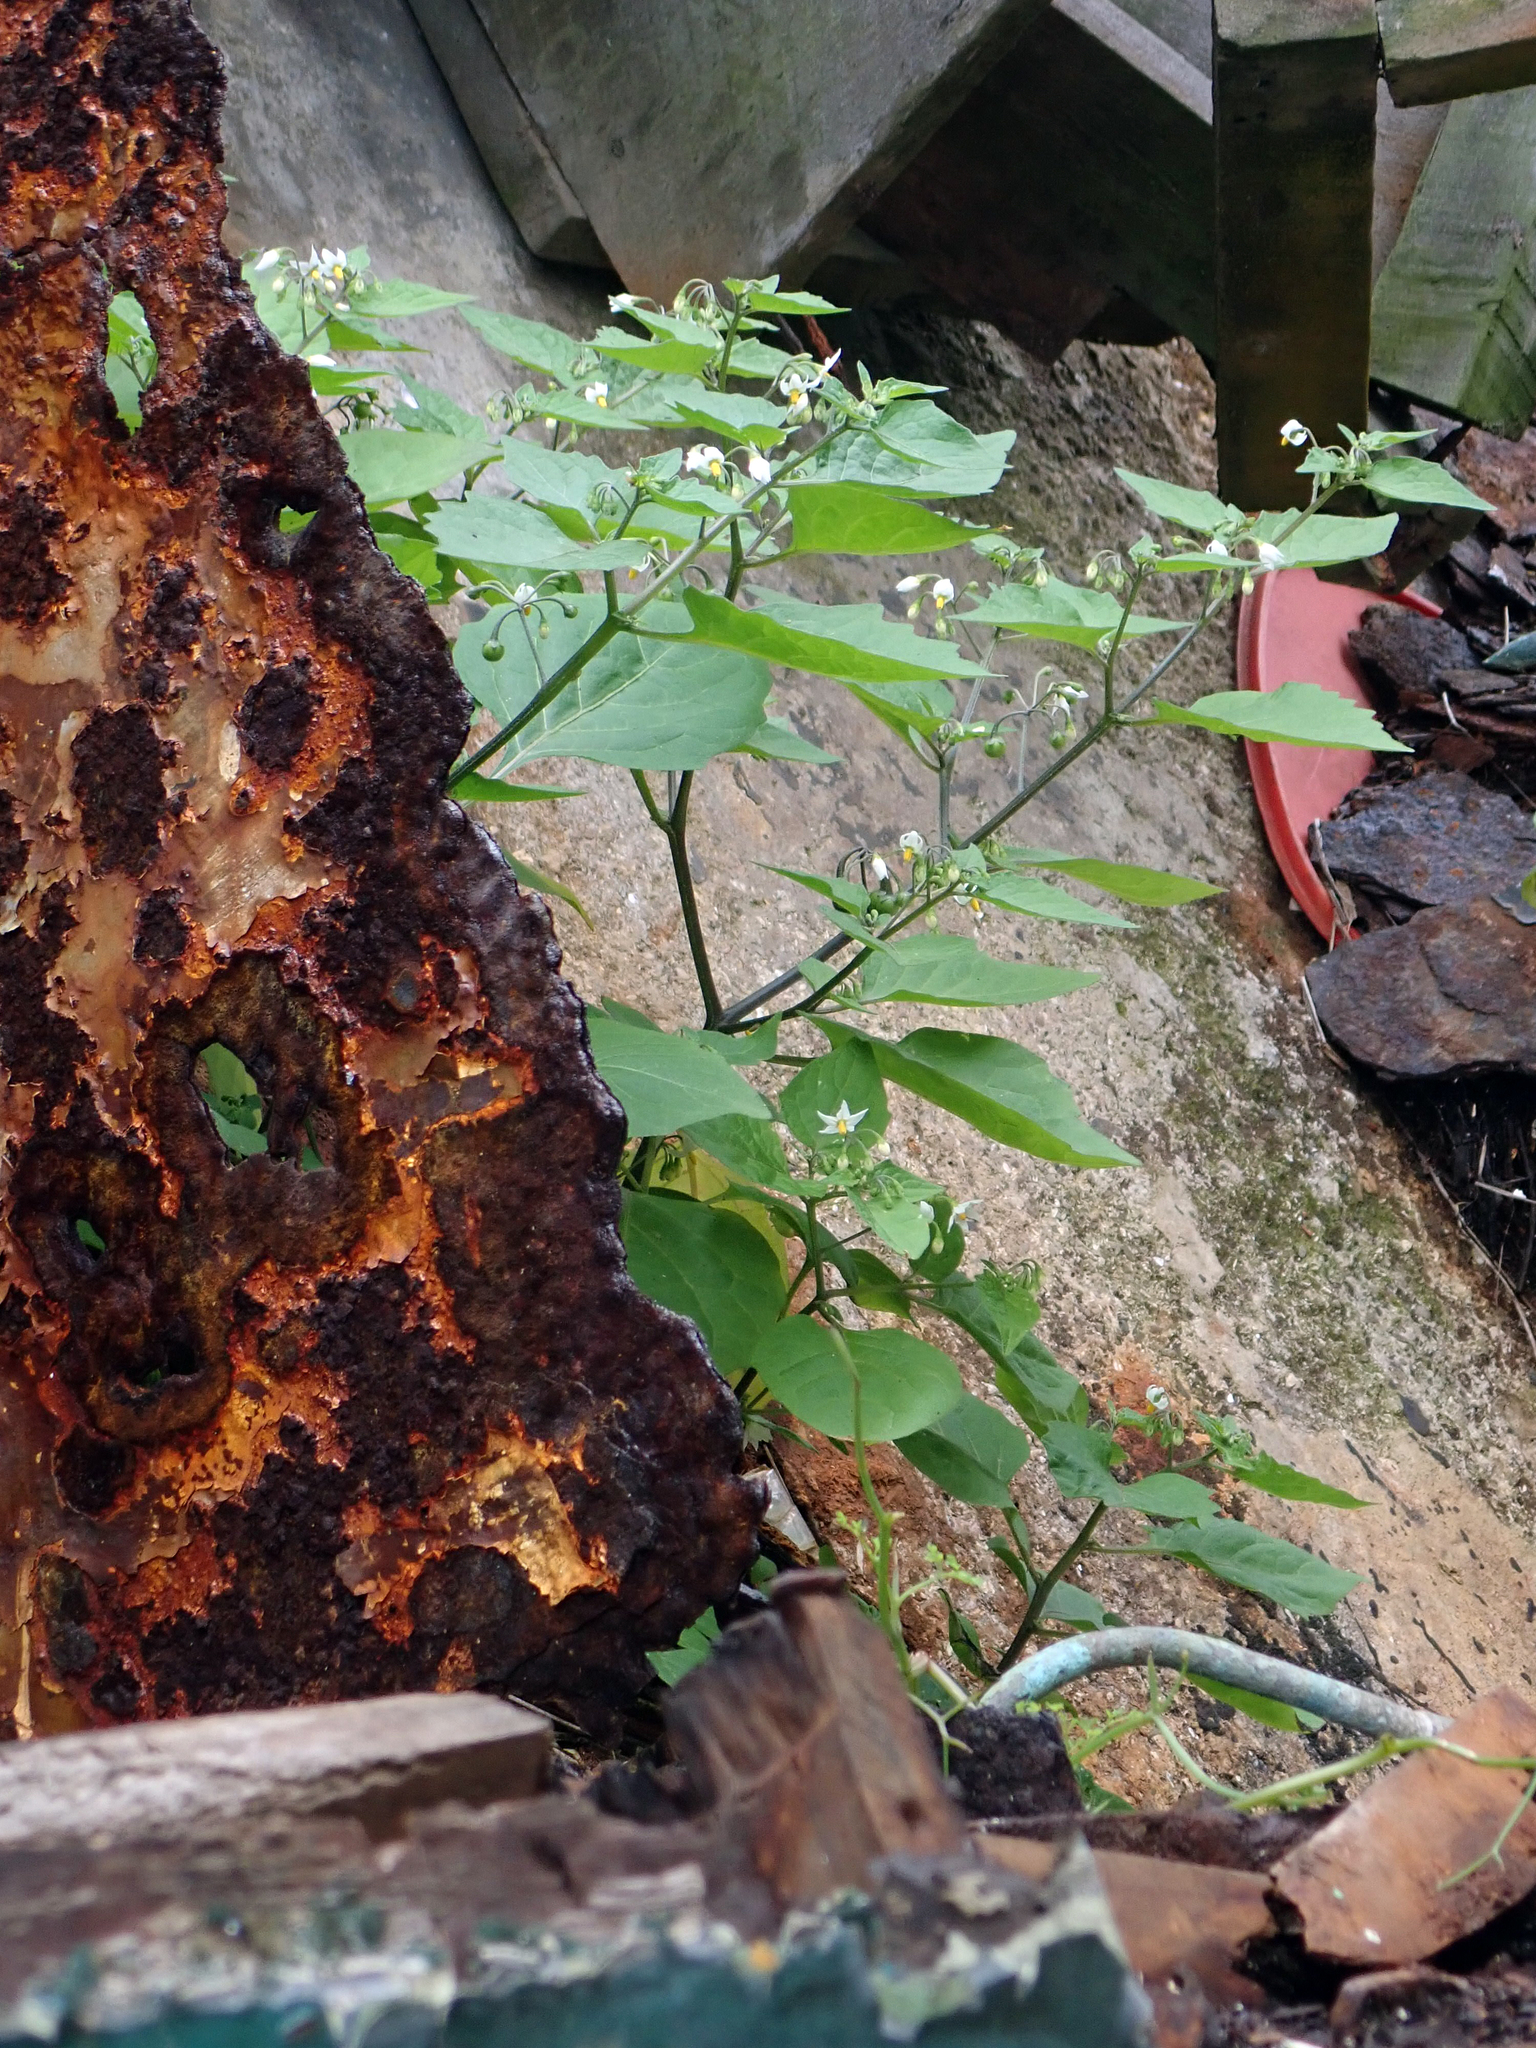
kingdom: Plantae
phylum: Tracheophyta
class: Magnoliopsida
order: Solanales
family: Solanaceae
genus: Solanum
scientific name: Solanum nigrum
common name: Black nightshade
